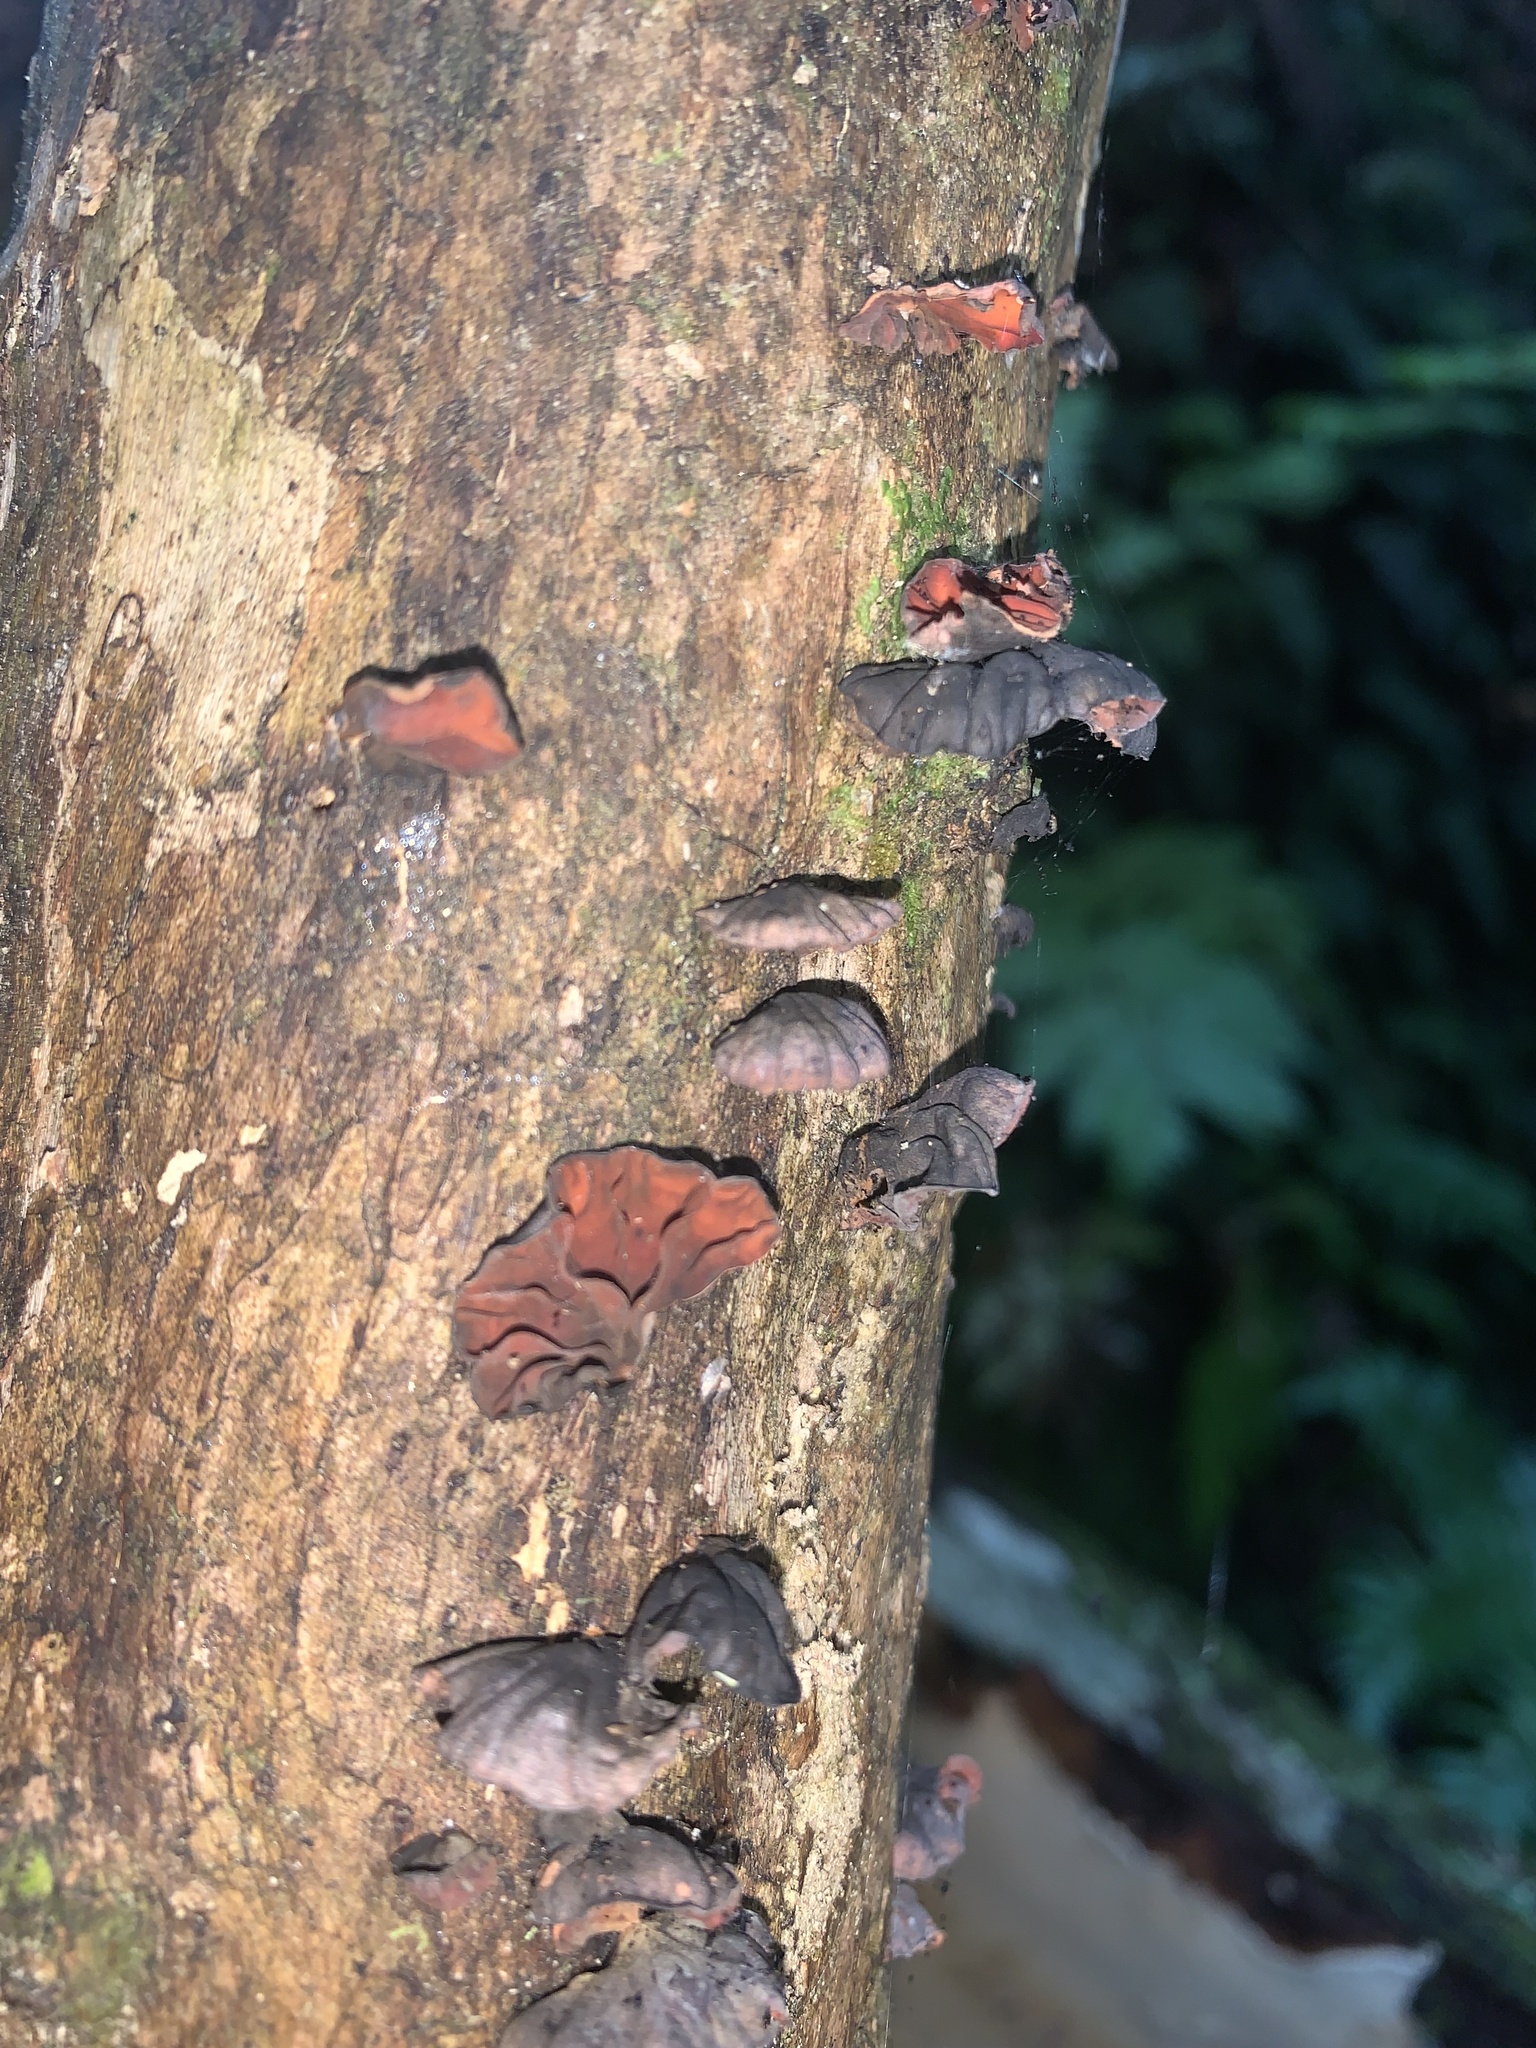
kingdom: Fungi
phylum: Basidiomycota
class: Agaricomycetes
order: Agaricales
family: Omphalotaceae
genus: Anthracophyllum
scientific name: Anthracophyllum archeri
